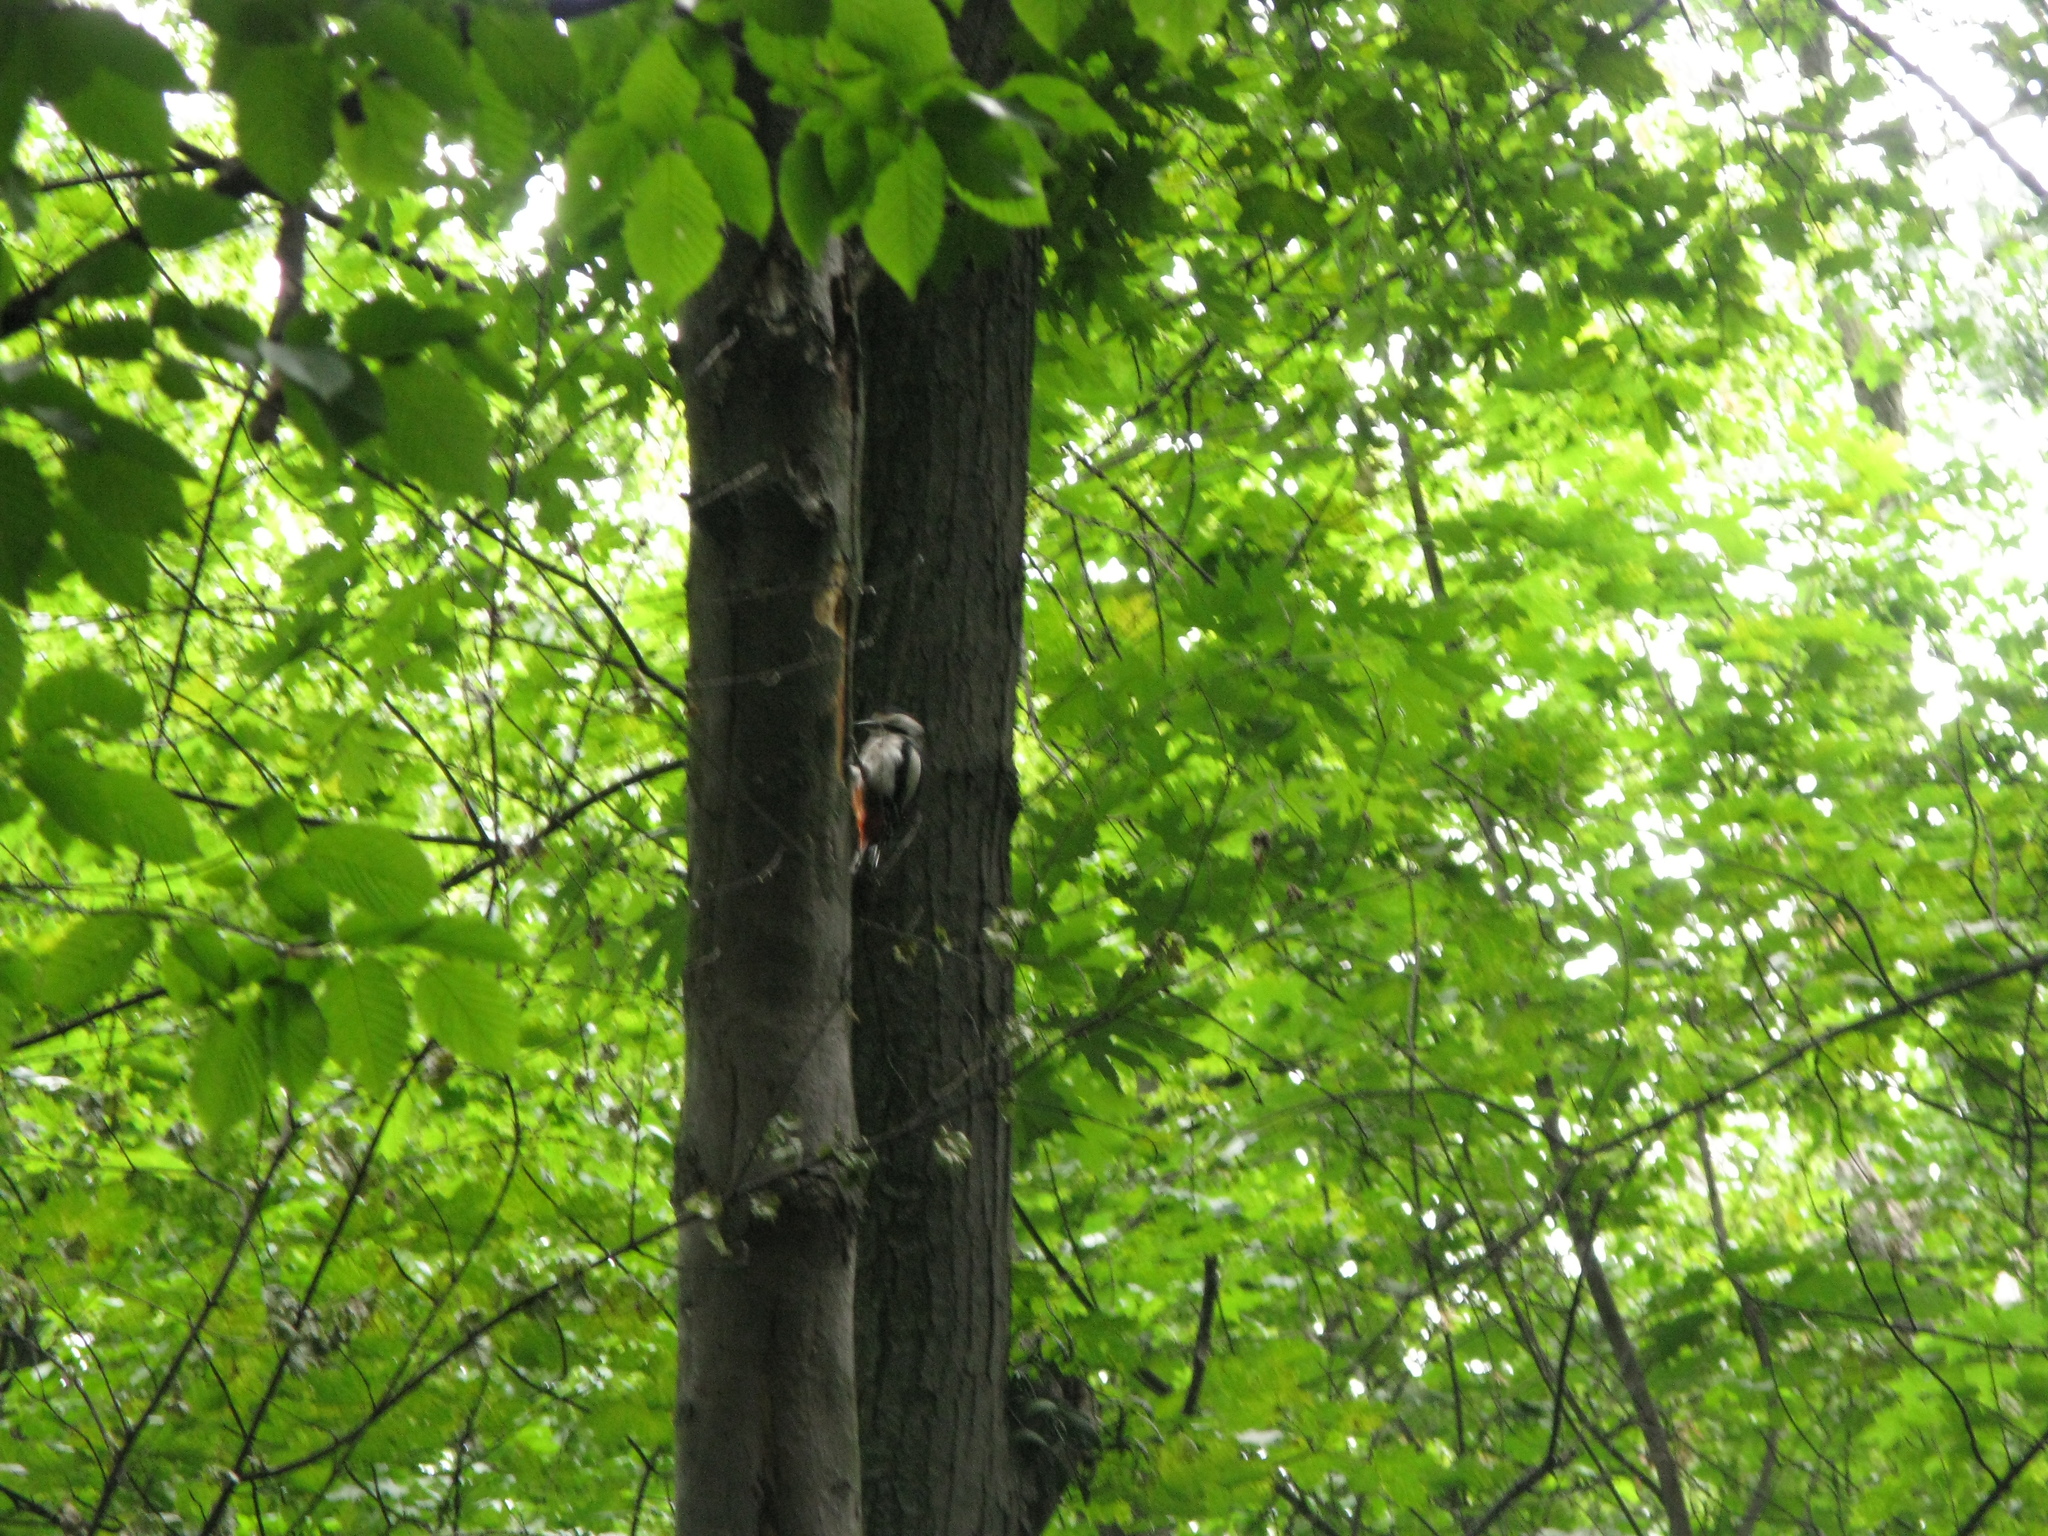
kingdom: Animalia
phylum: Chordata
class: Aves
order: Piciformes
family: Picidae
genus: Dendrocopos
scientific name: Dendrocopos major
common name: Great spotted woodpecker
